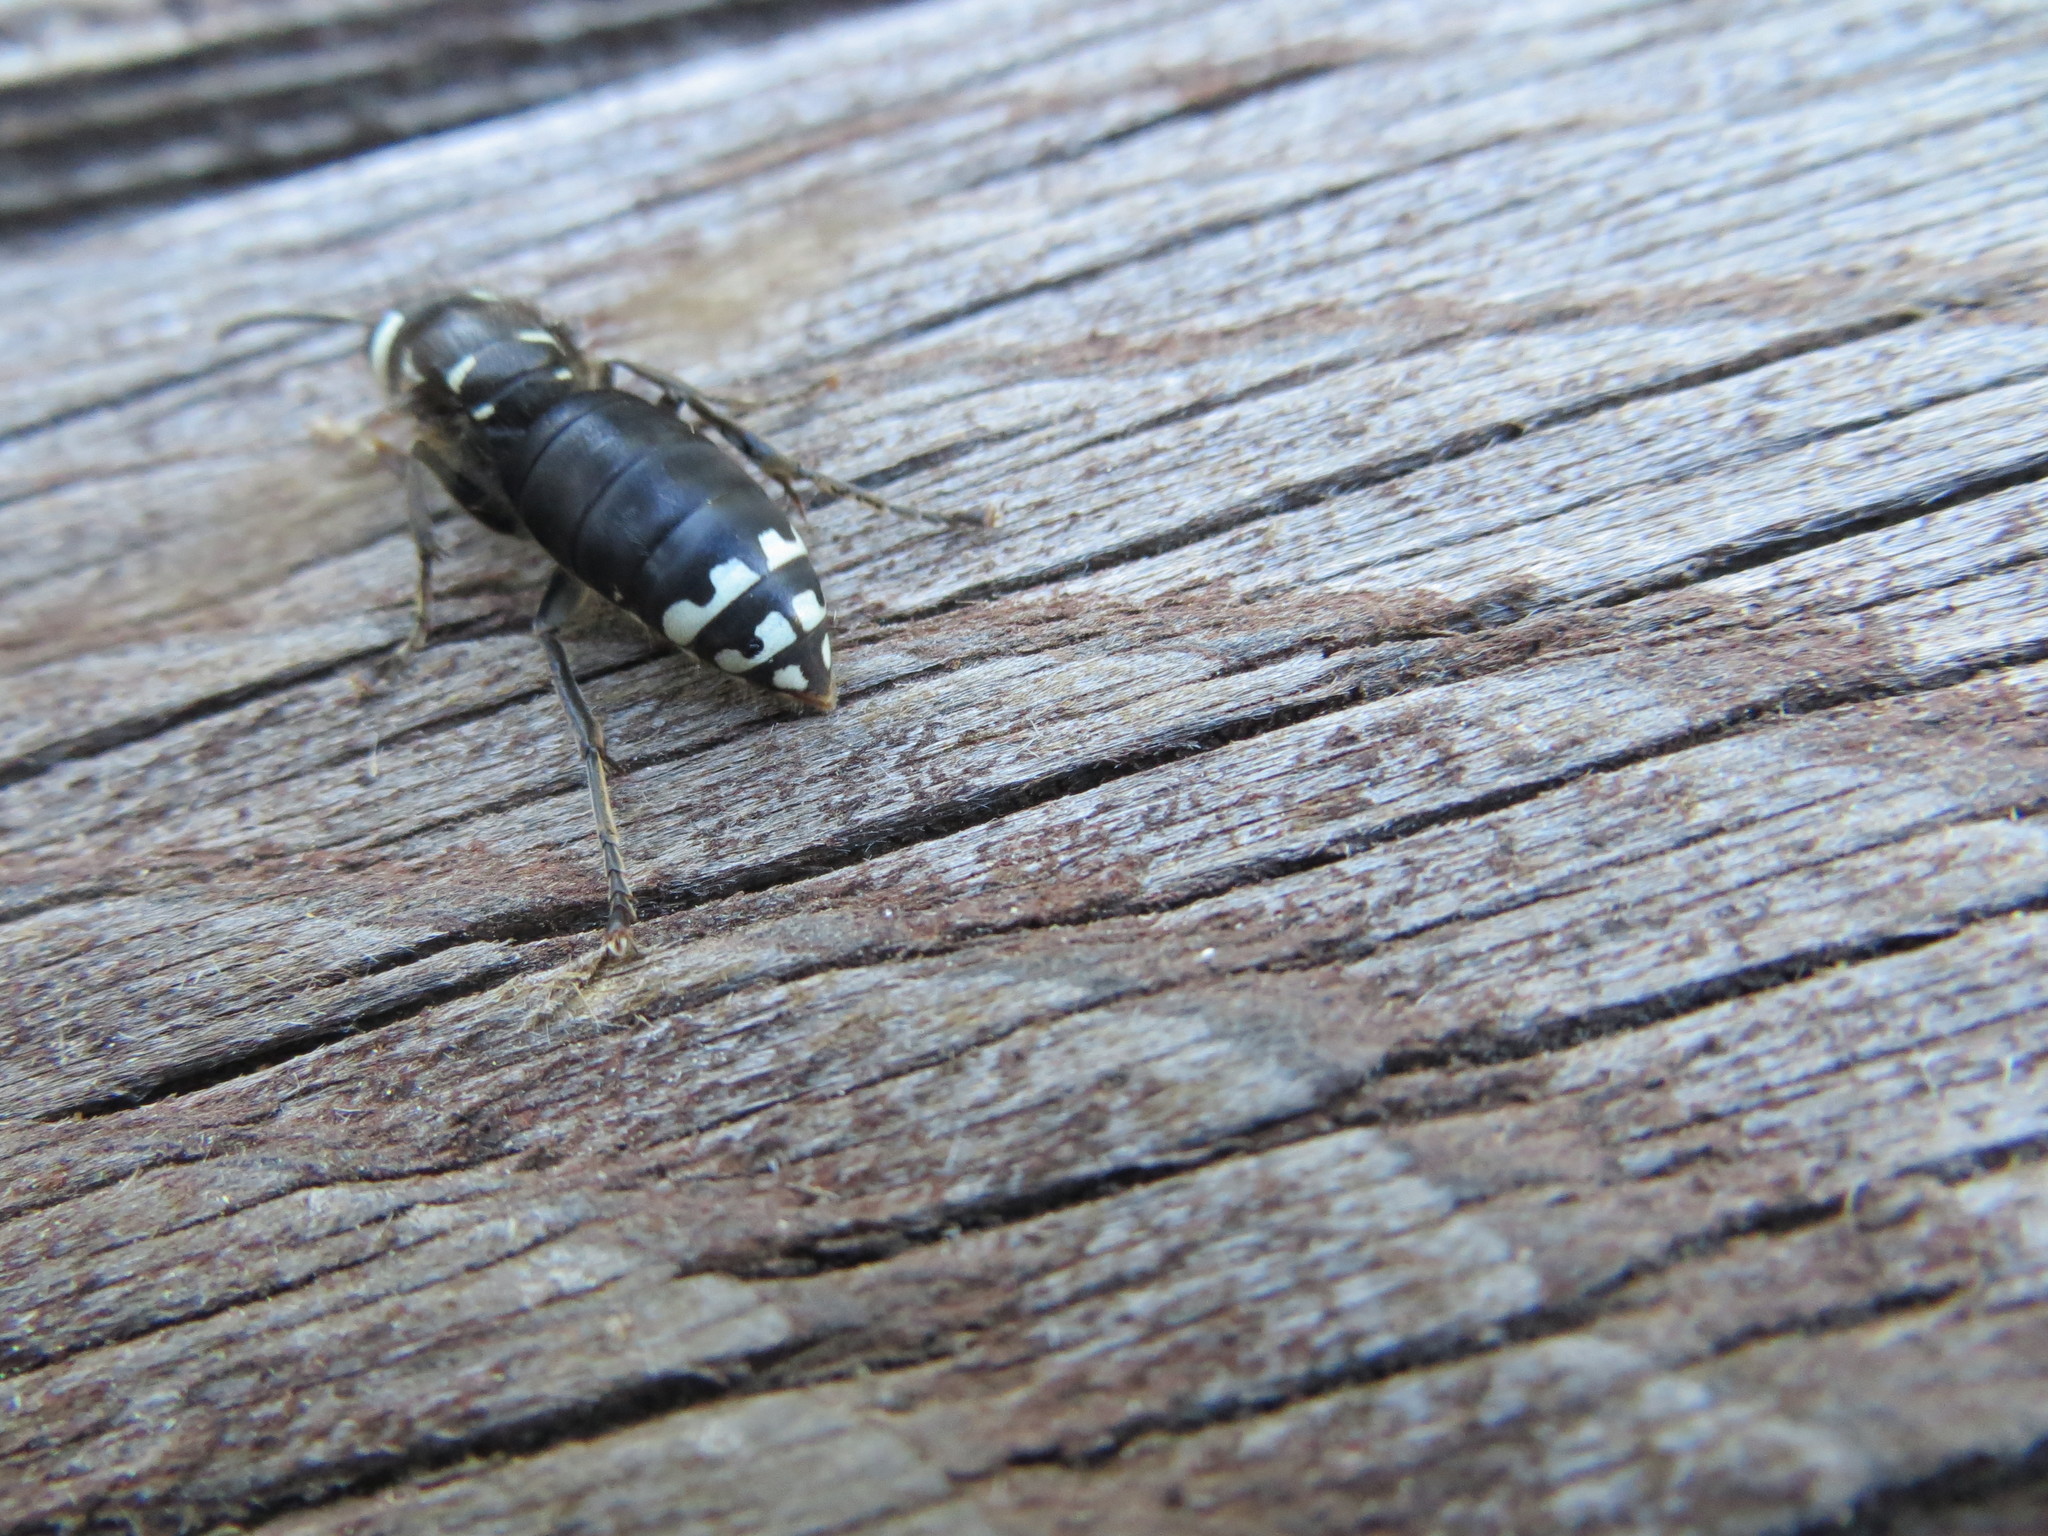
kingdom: Animalia
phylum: Arthropoda
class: Insecta
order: Hymenoptera
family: Vespidae
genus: Dolichovespula
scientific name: Dolichovespula maculata
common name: Bald-faced hornet
